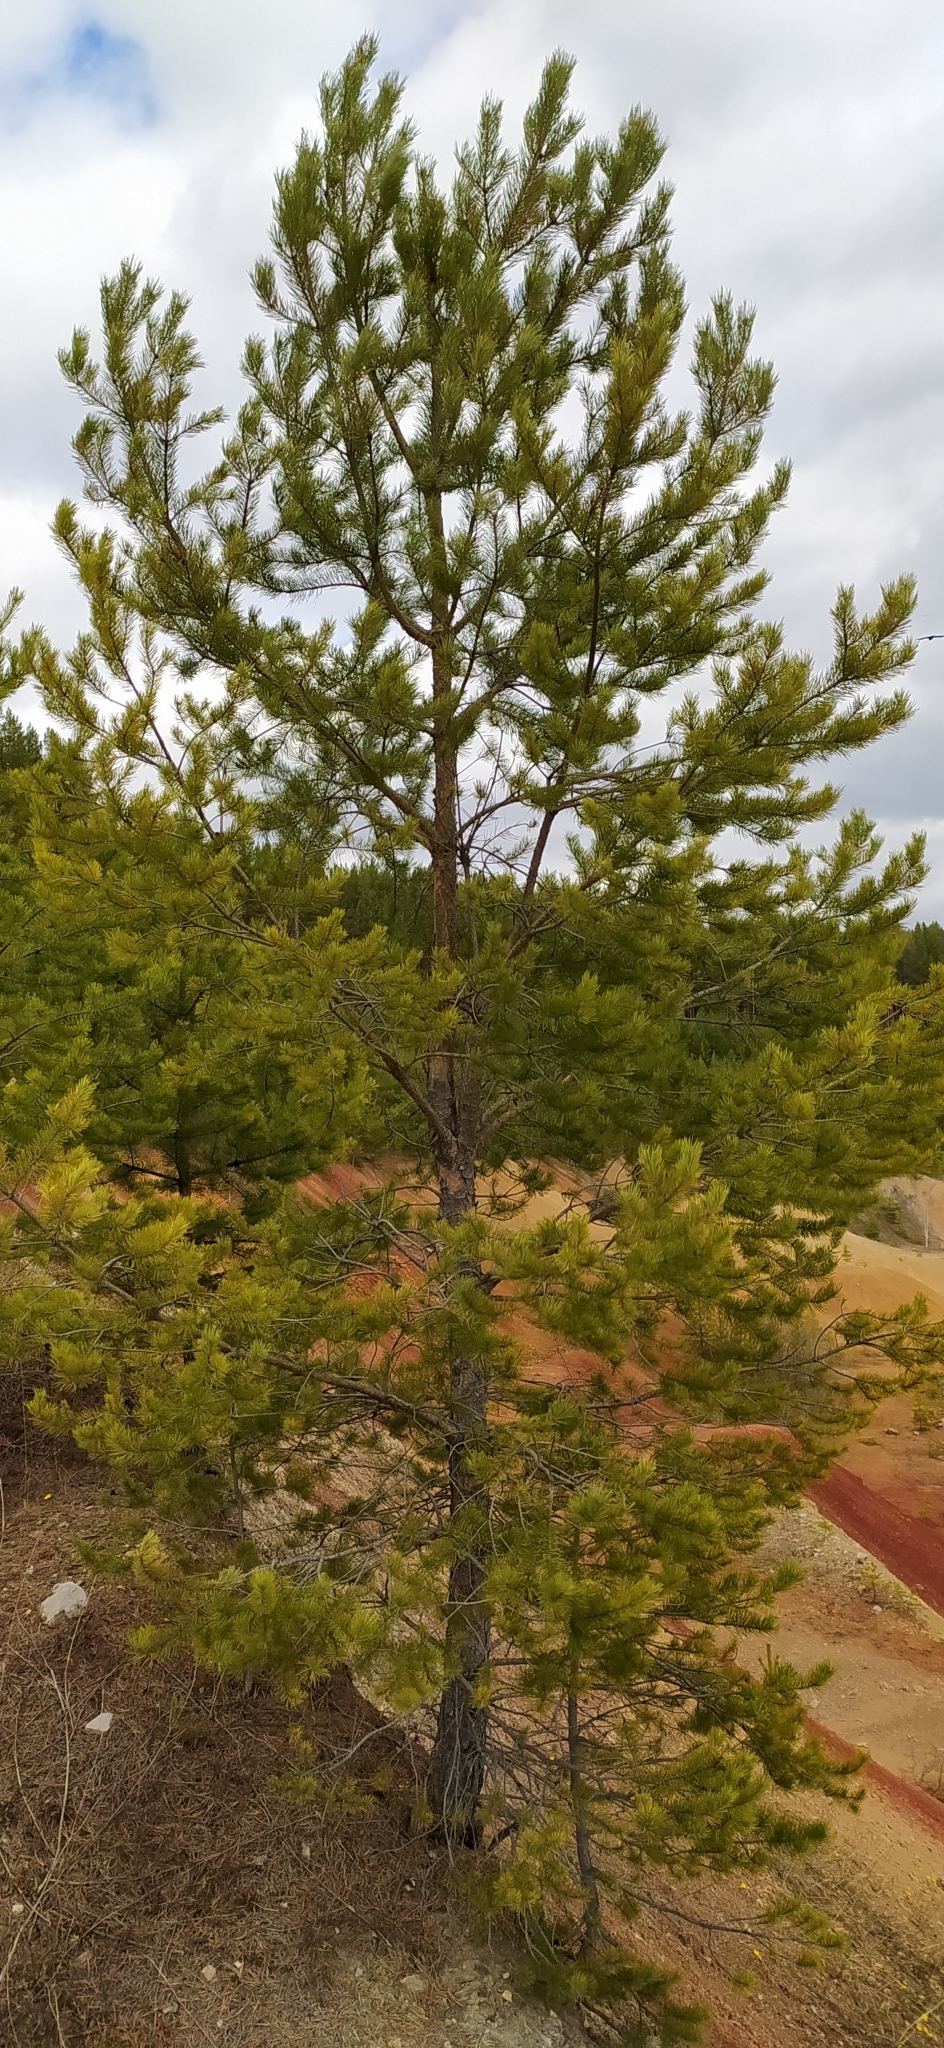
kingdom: Plantae
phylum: Tracheophyta
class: Pinopsida
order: Pinales
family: Pinaceae
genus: Pinus
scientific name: Pinus sylvestris
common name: Scots pine
